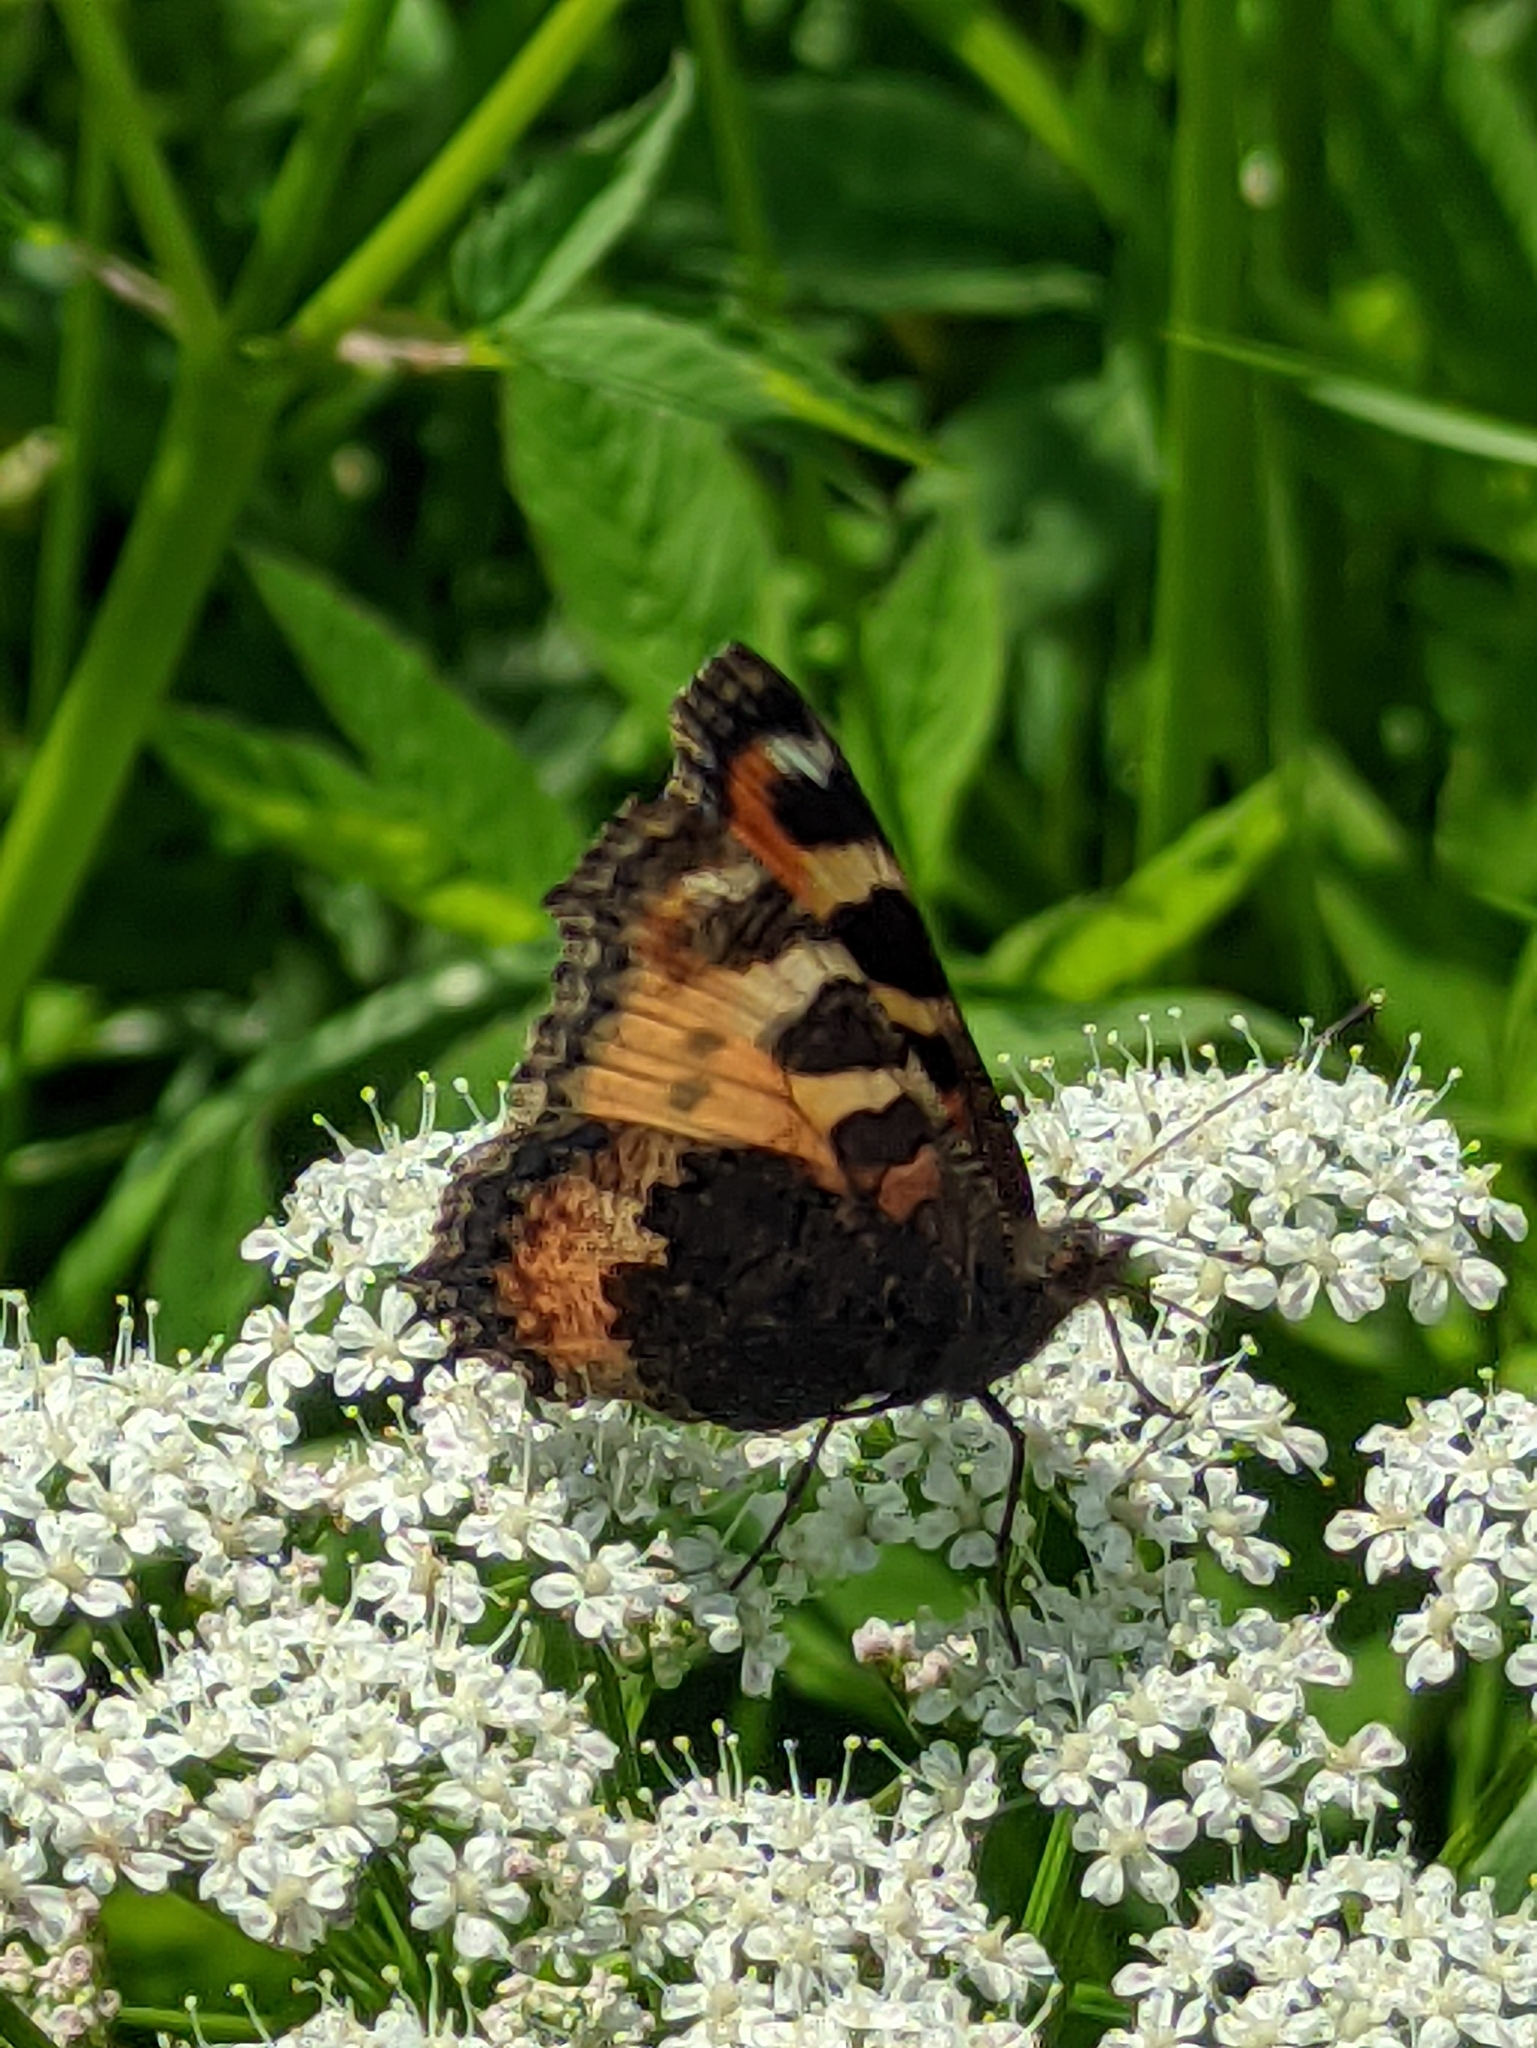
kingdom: Animalia
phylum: Arthropoda
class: Insecta
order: Lepidoptera
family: Nymphalidae
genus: Aglais
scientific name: Aglais urticae
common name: Small tortoiseshell
